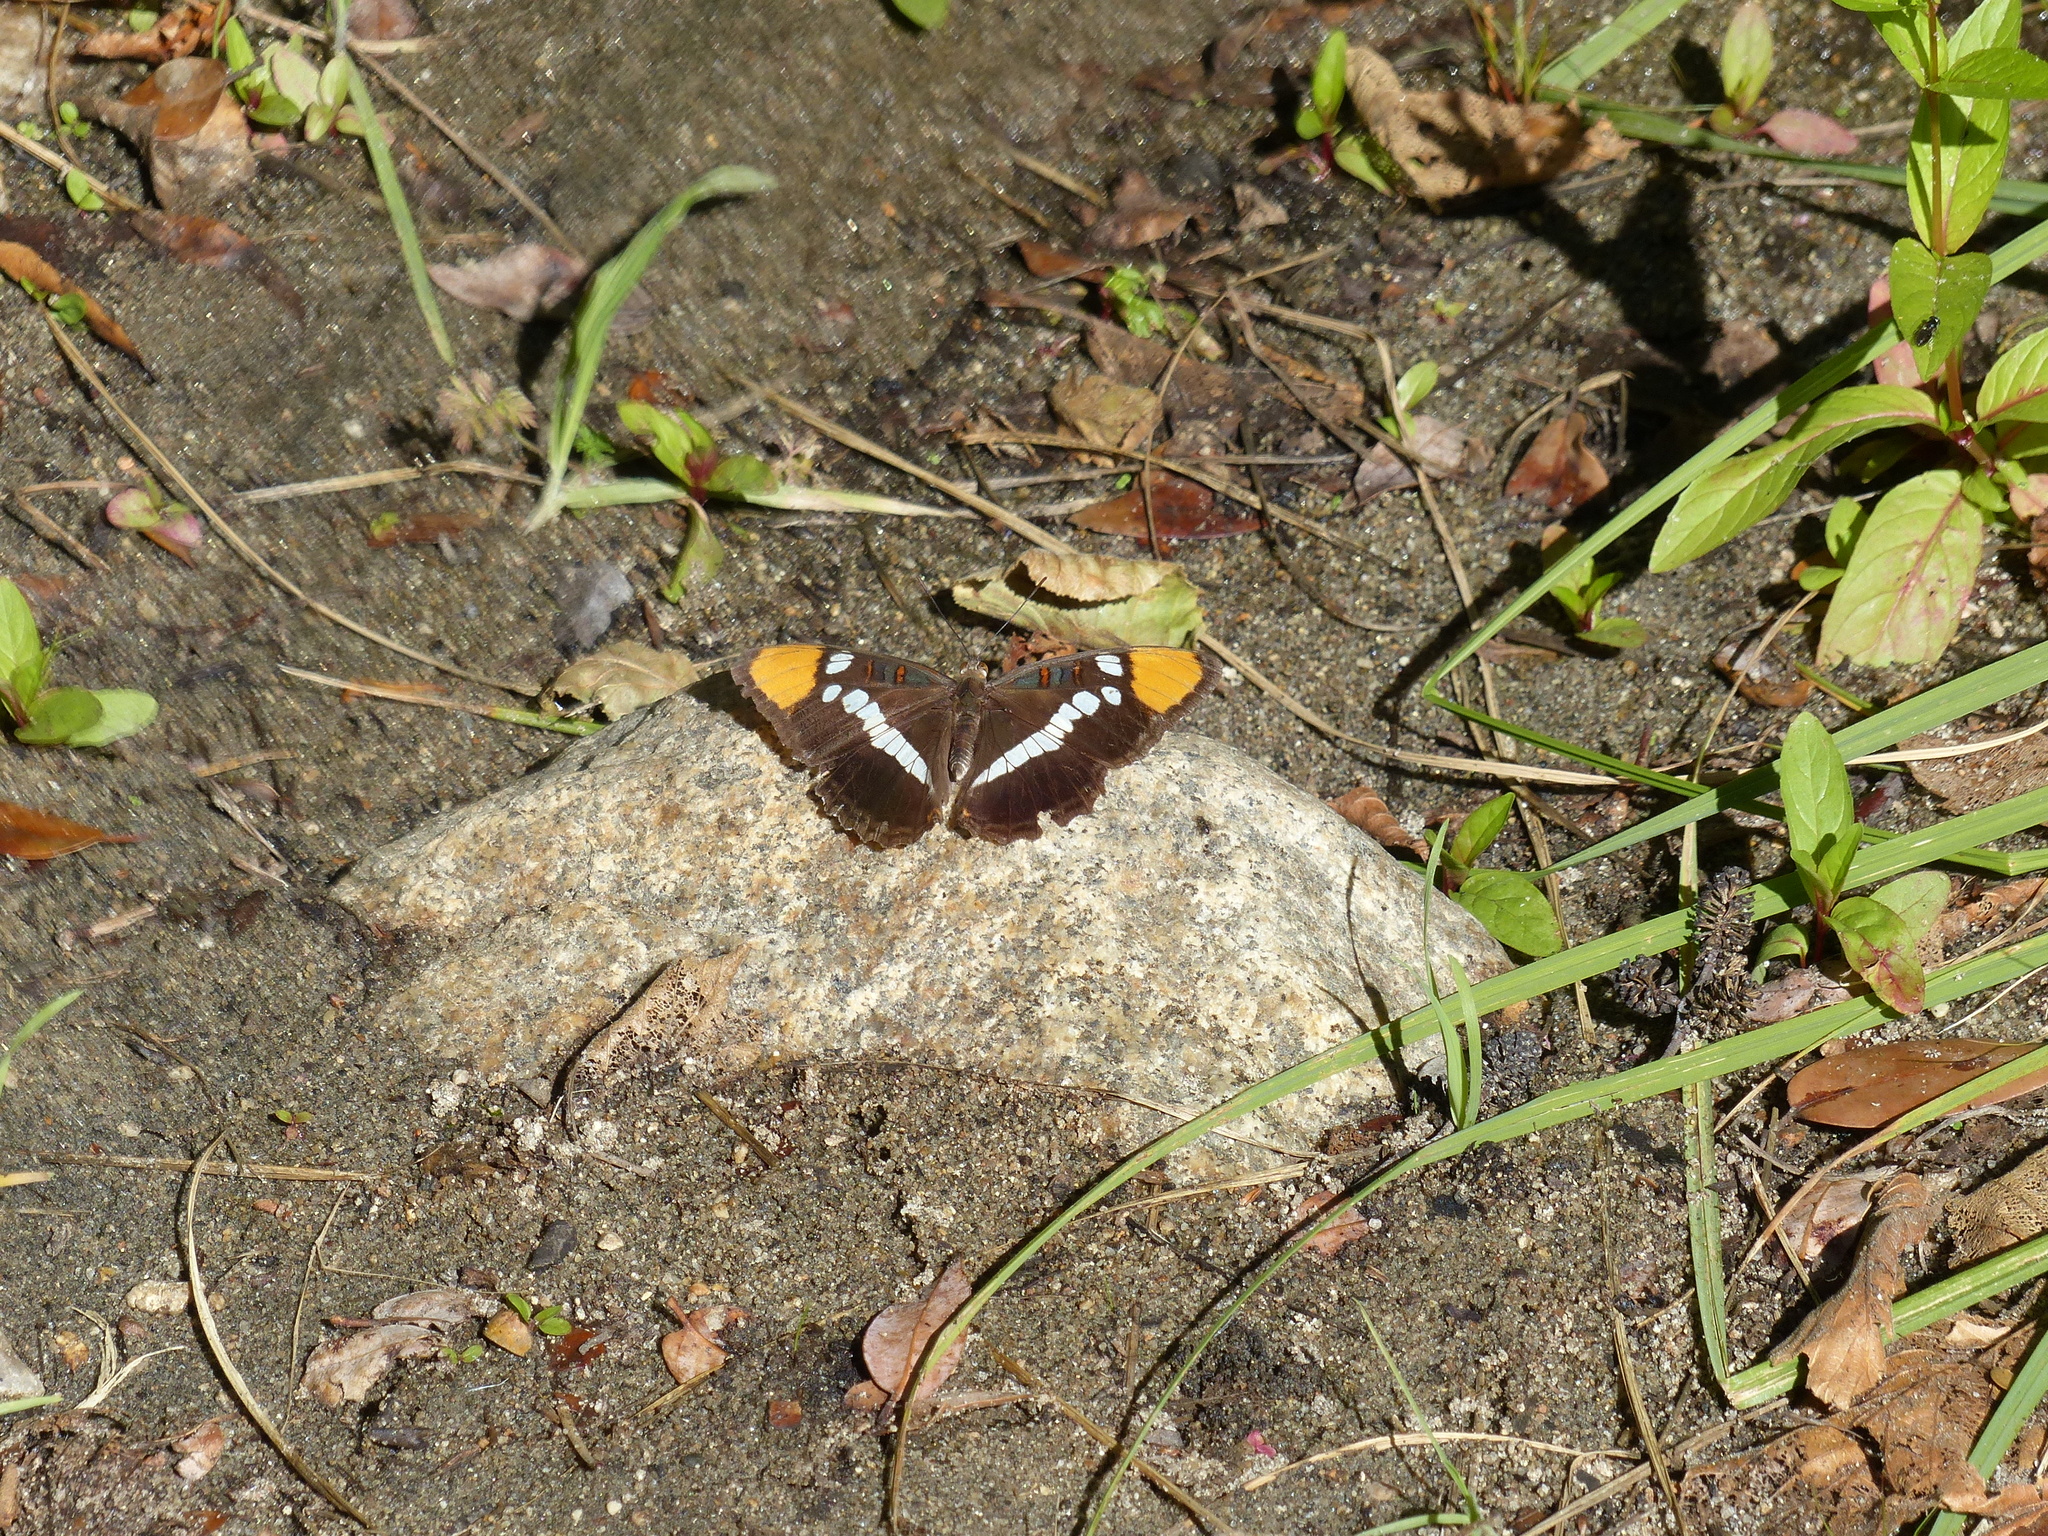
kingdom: Animalia
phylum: Arthropoda
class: Insecta
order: Lepidoptera
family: Nymphalidae
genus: Limenitis
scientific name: Limenitis bredowii
